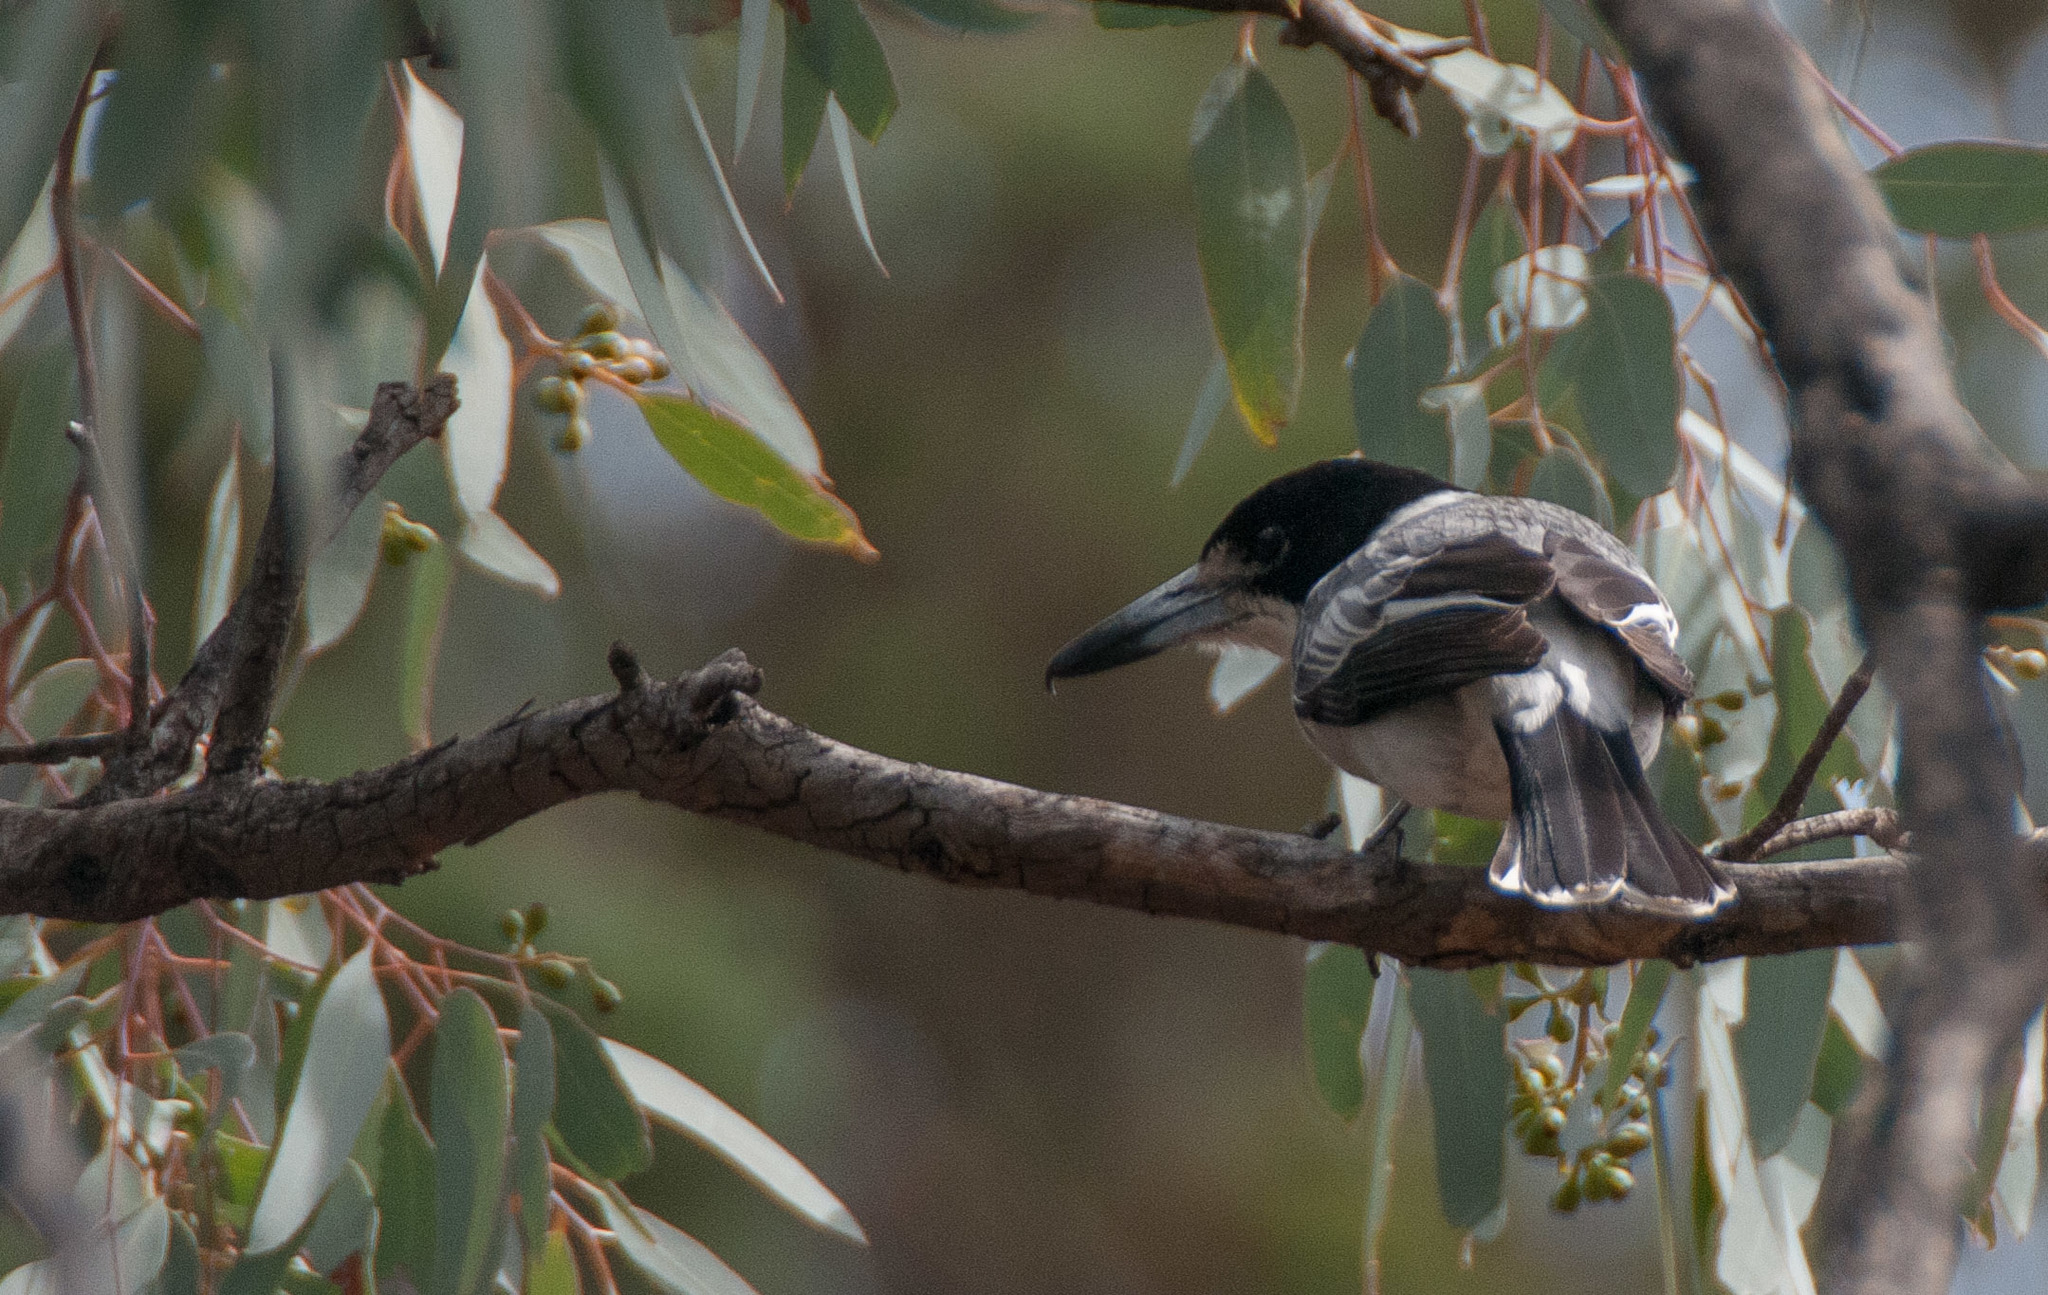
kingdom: Animalia
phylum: Chordata
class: Aves
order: Passeriformes
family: Cracticidae
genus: Cracticus
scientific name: Cracticus torquatus
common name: Grey butcherbird
